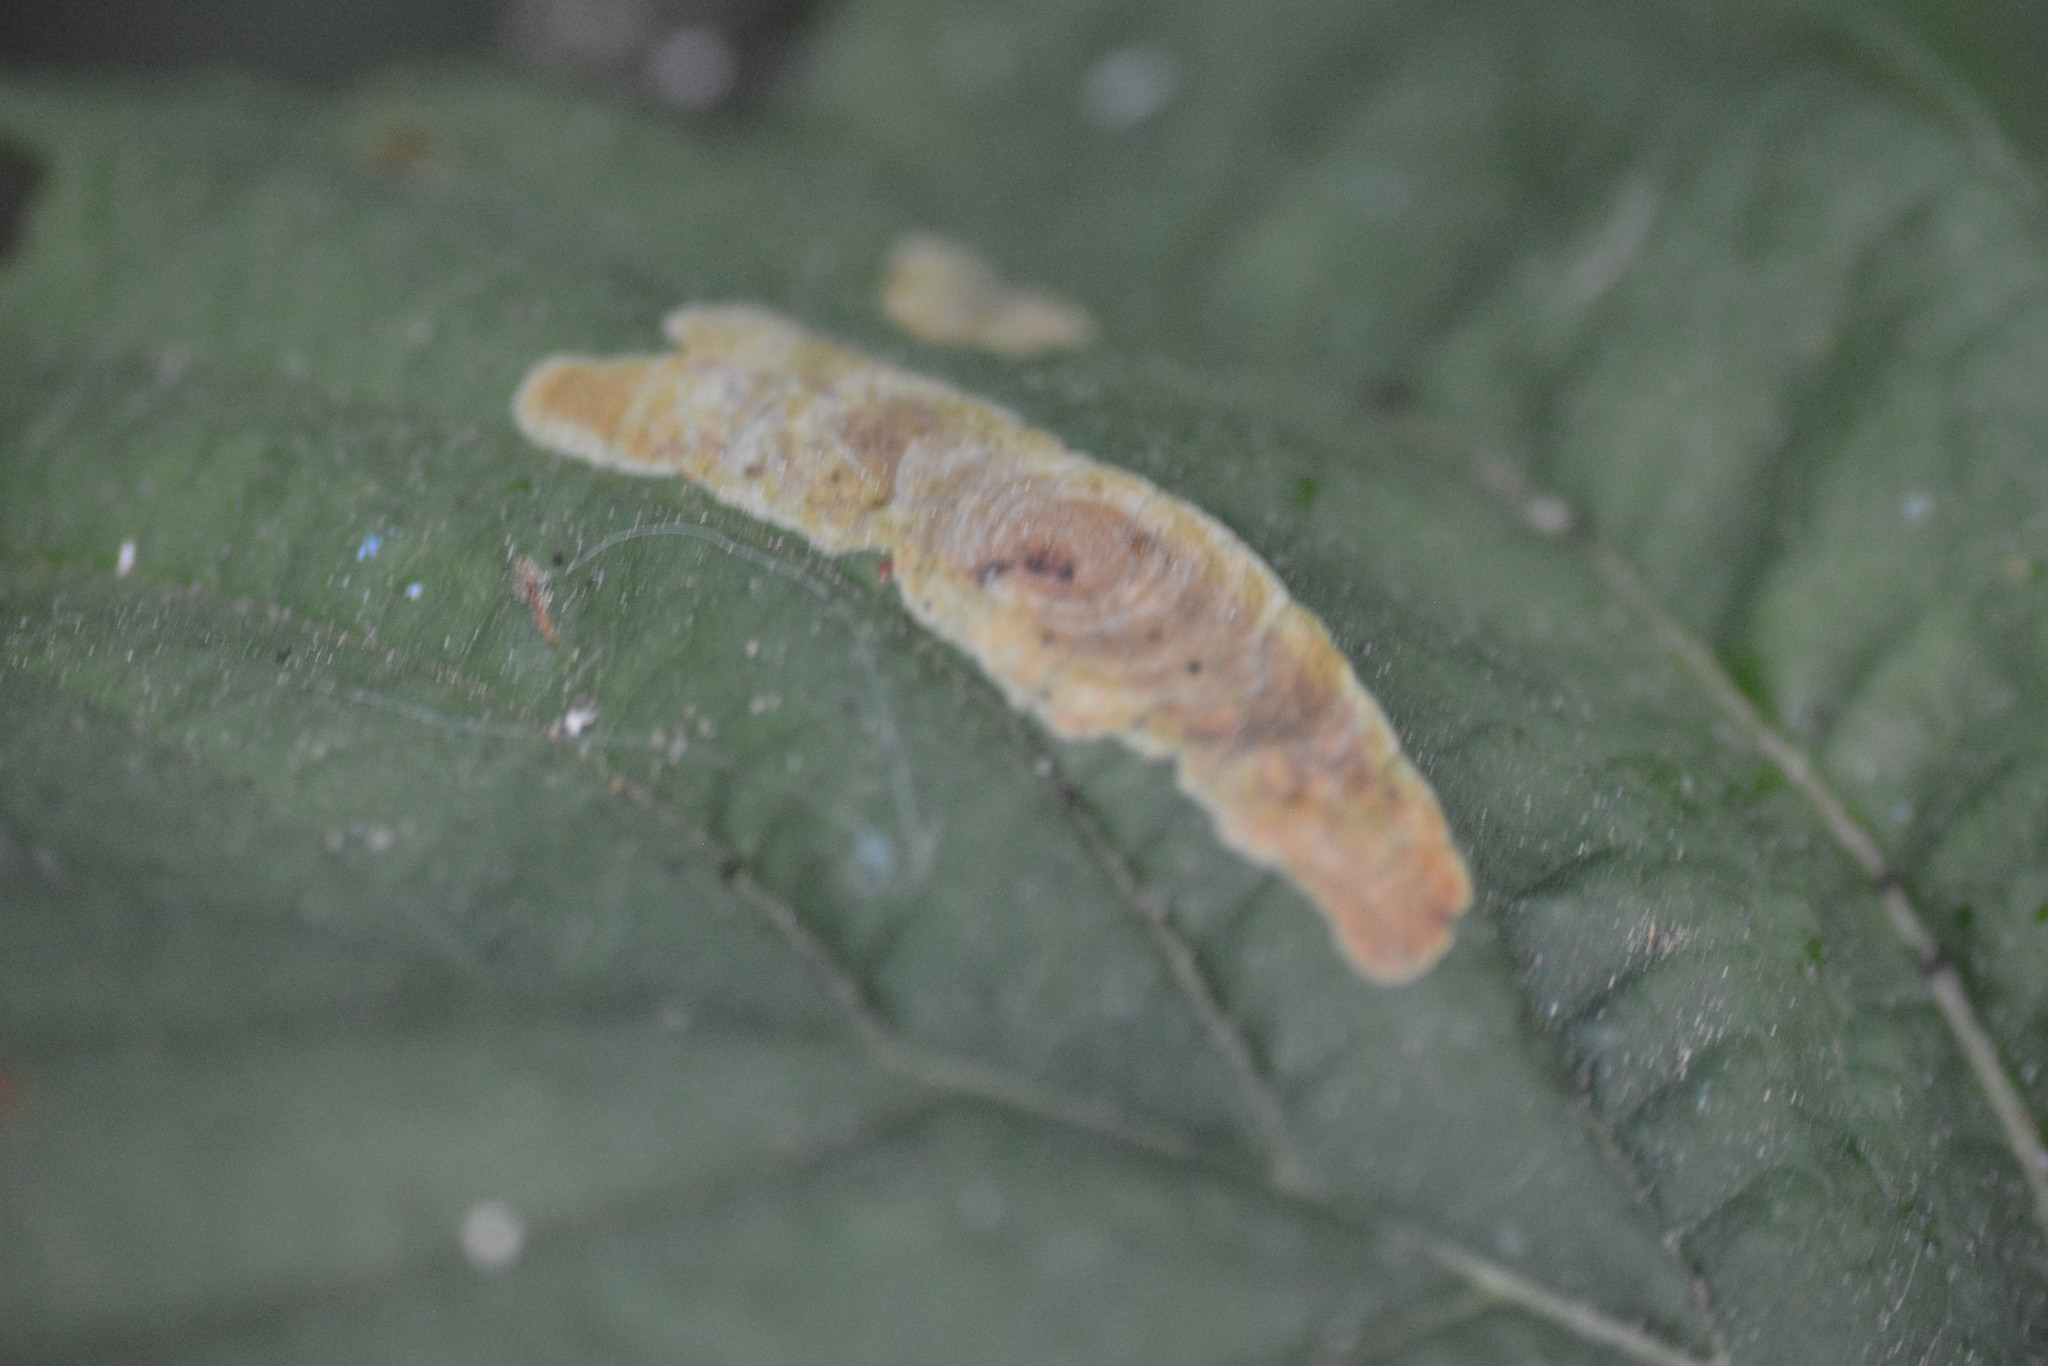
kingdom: Animalia
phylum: Arthropoda
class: Insecta
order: Lepidoptera
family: Gracillariidae
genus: Cameraria
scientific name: Cameraria ohridella
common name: Horse-chestnut leaf-miner
